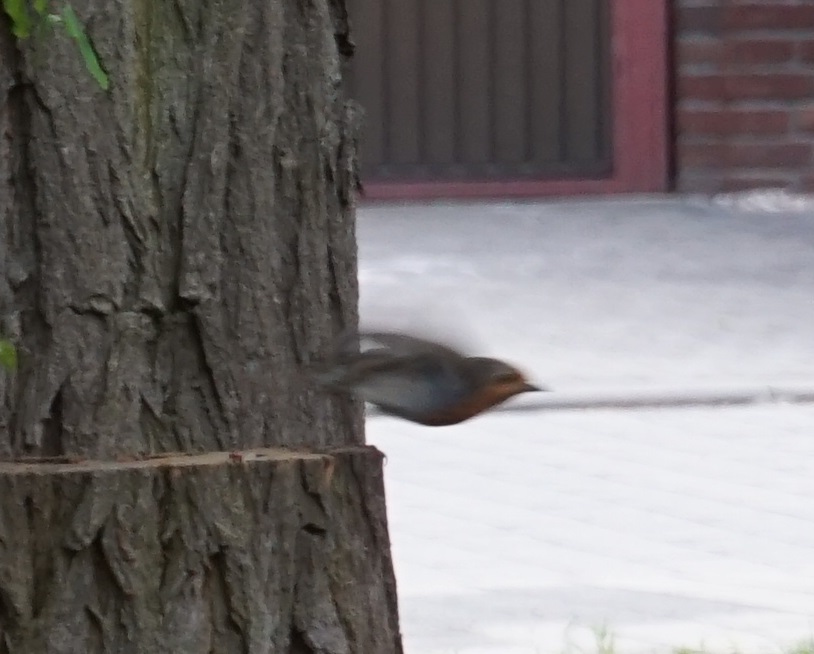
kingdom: Animalia
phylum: Chordata
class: Aves
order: Passeriformes
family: Muscicapidae
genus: Erithacus
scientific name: Erithacus rubecula
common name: European robin
